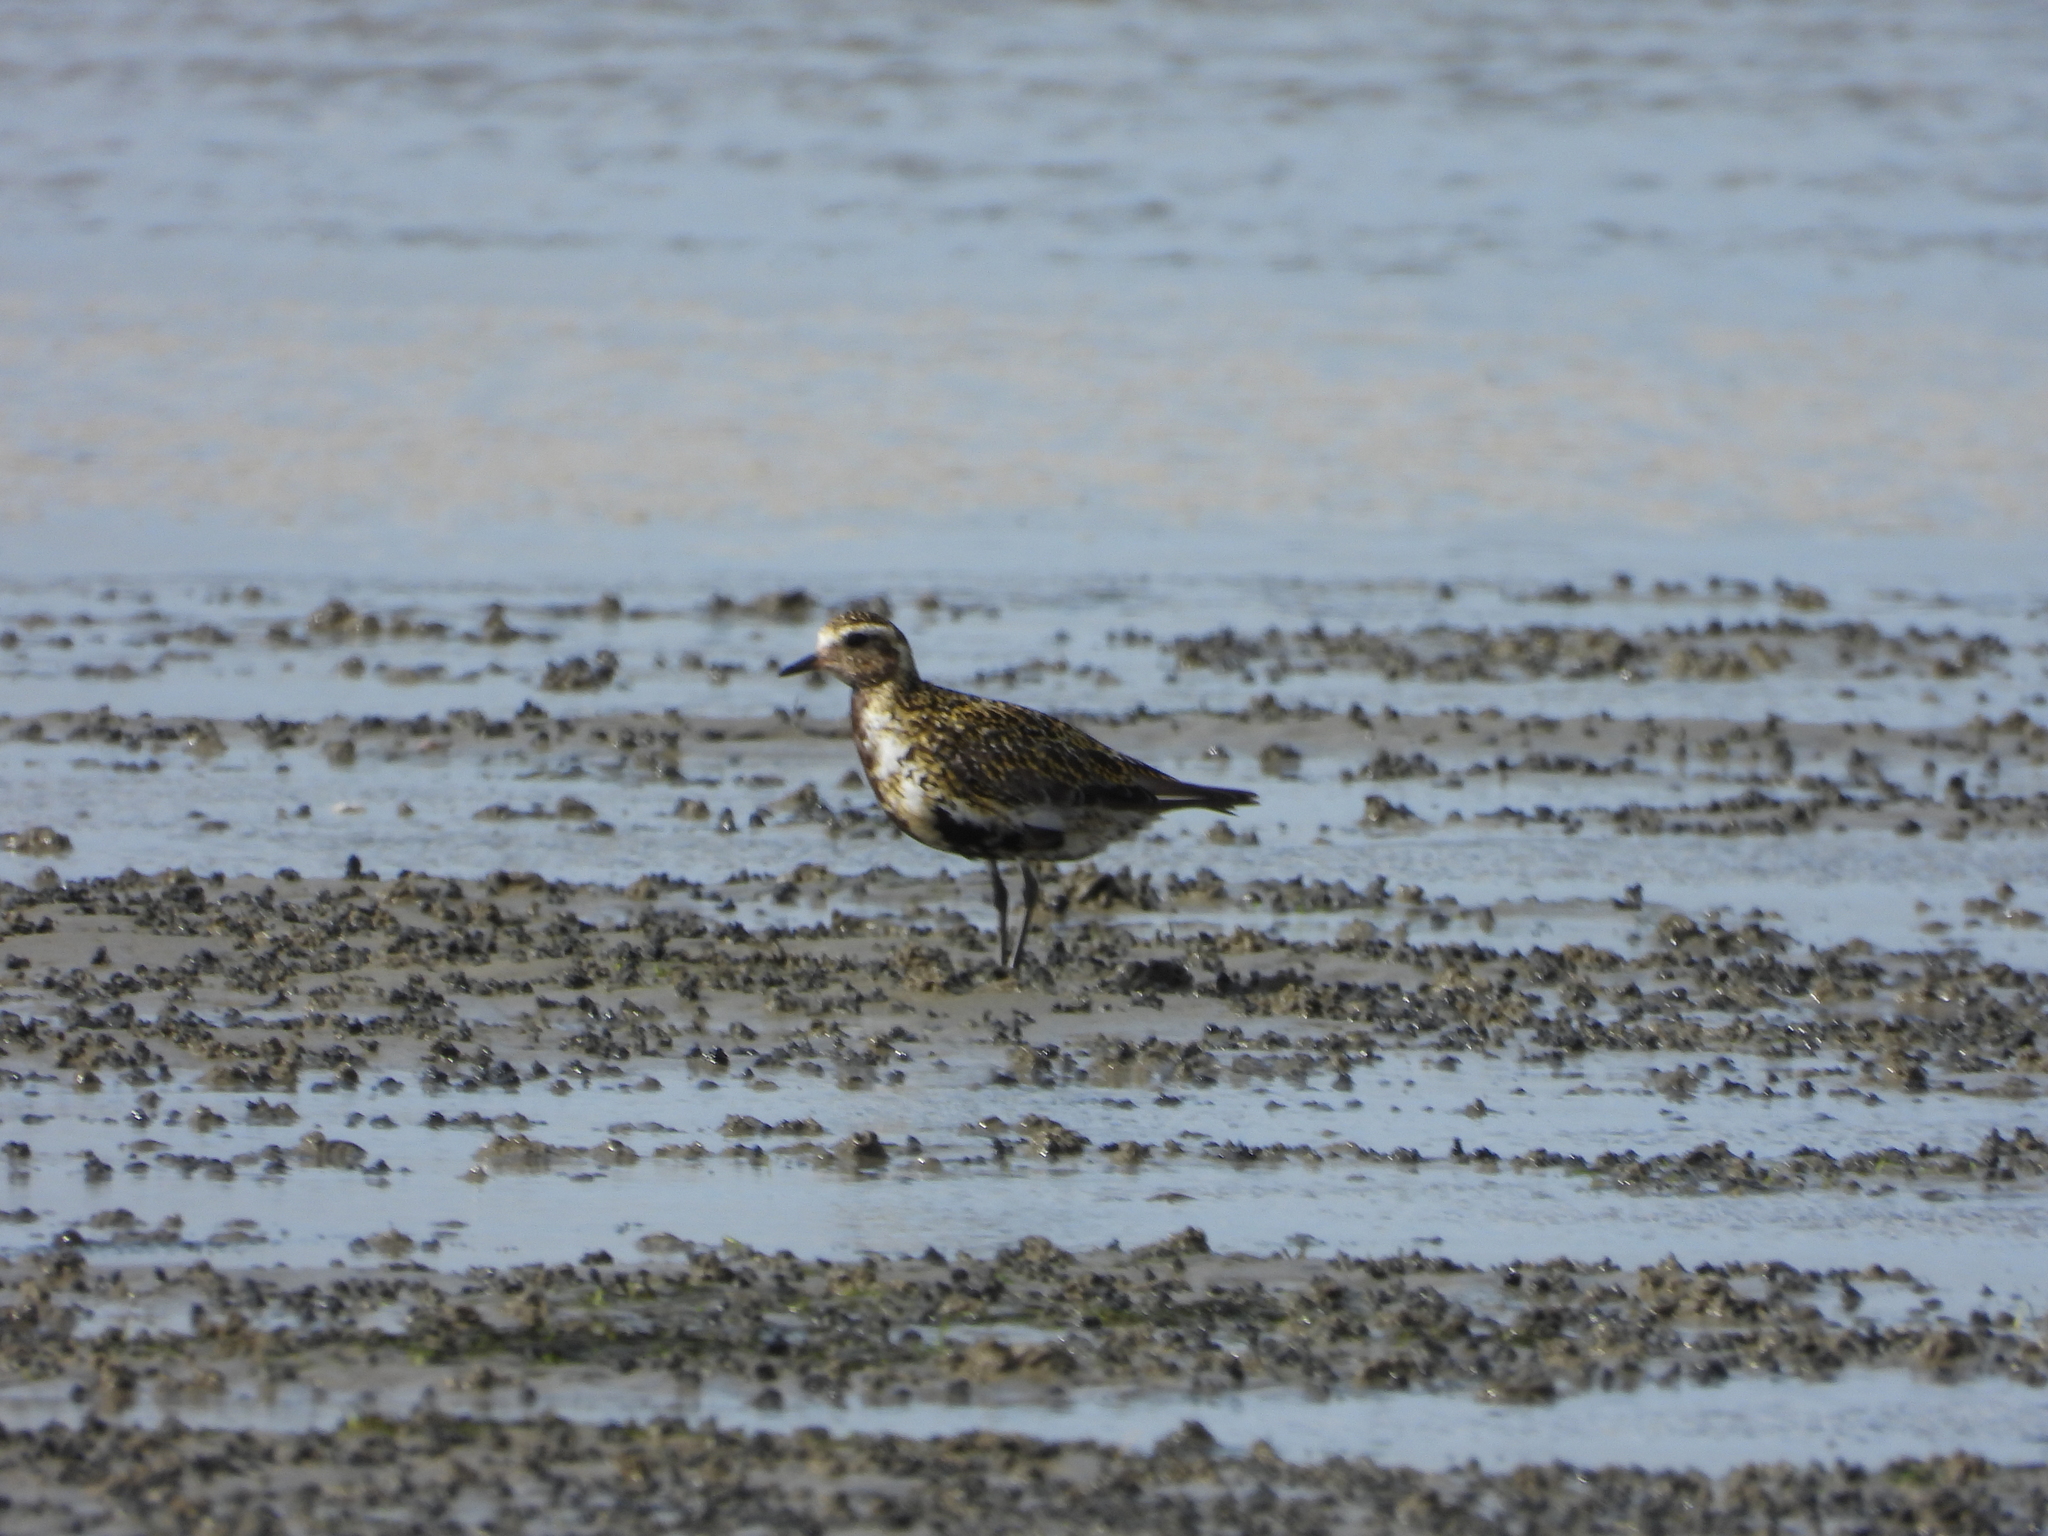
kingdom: Animalia
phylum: Chordata
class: Aves
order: Charadriiformes
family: Charadriidae
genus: Pluvialis
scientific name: Pluvialis apricaria
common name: European golden plover
